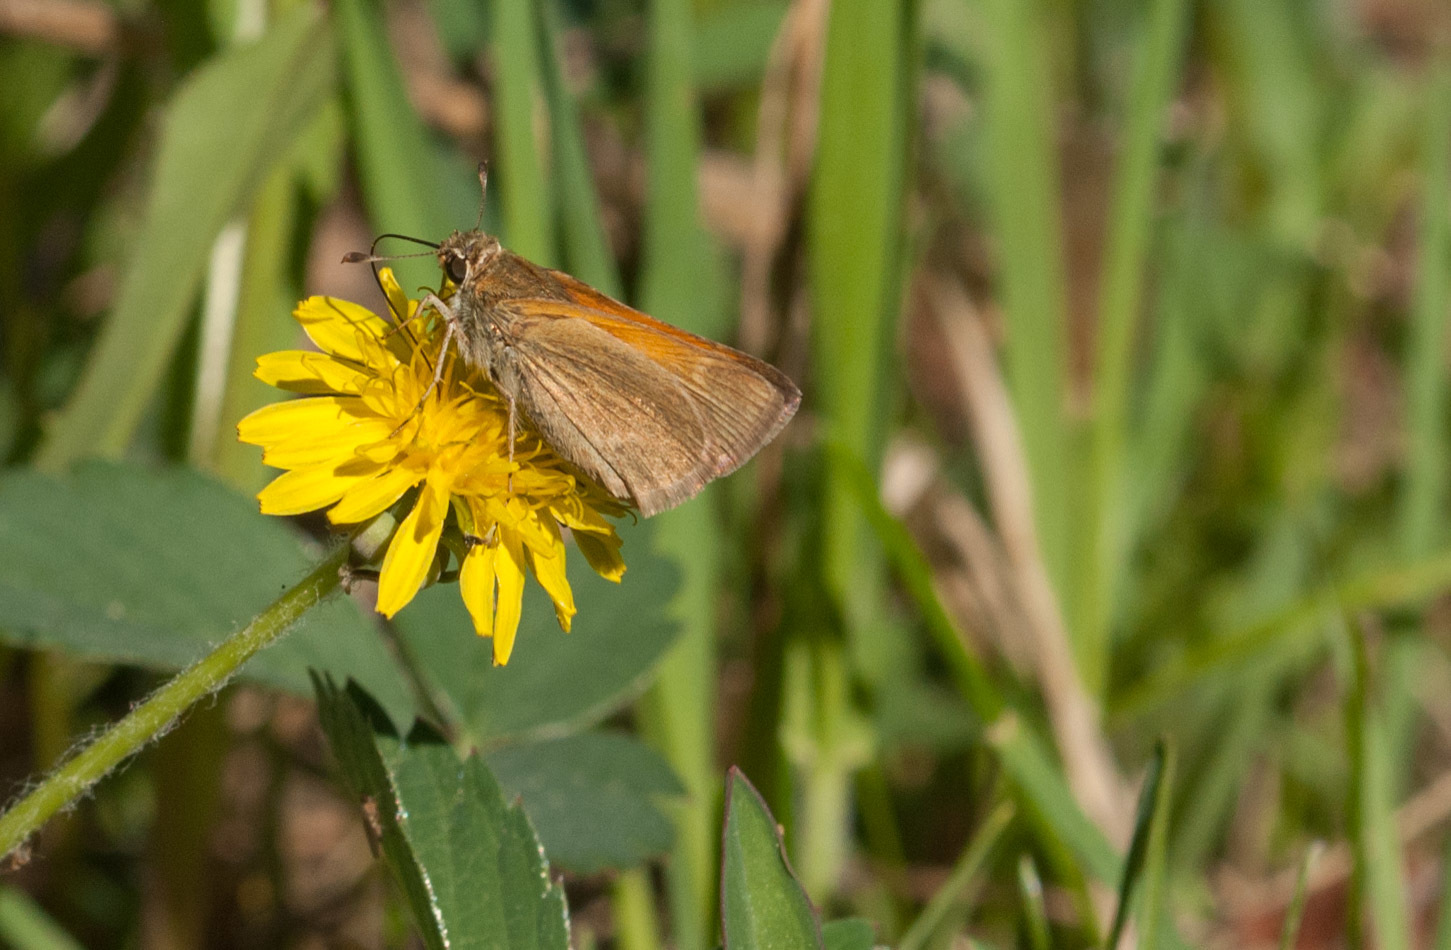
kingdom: Animalia
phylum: Arthropoda
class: Insecta
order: Lepidoptera
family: Hesperiidae
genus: Polites
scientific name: Polites themistocles
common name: Tawny-edged skipper
